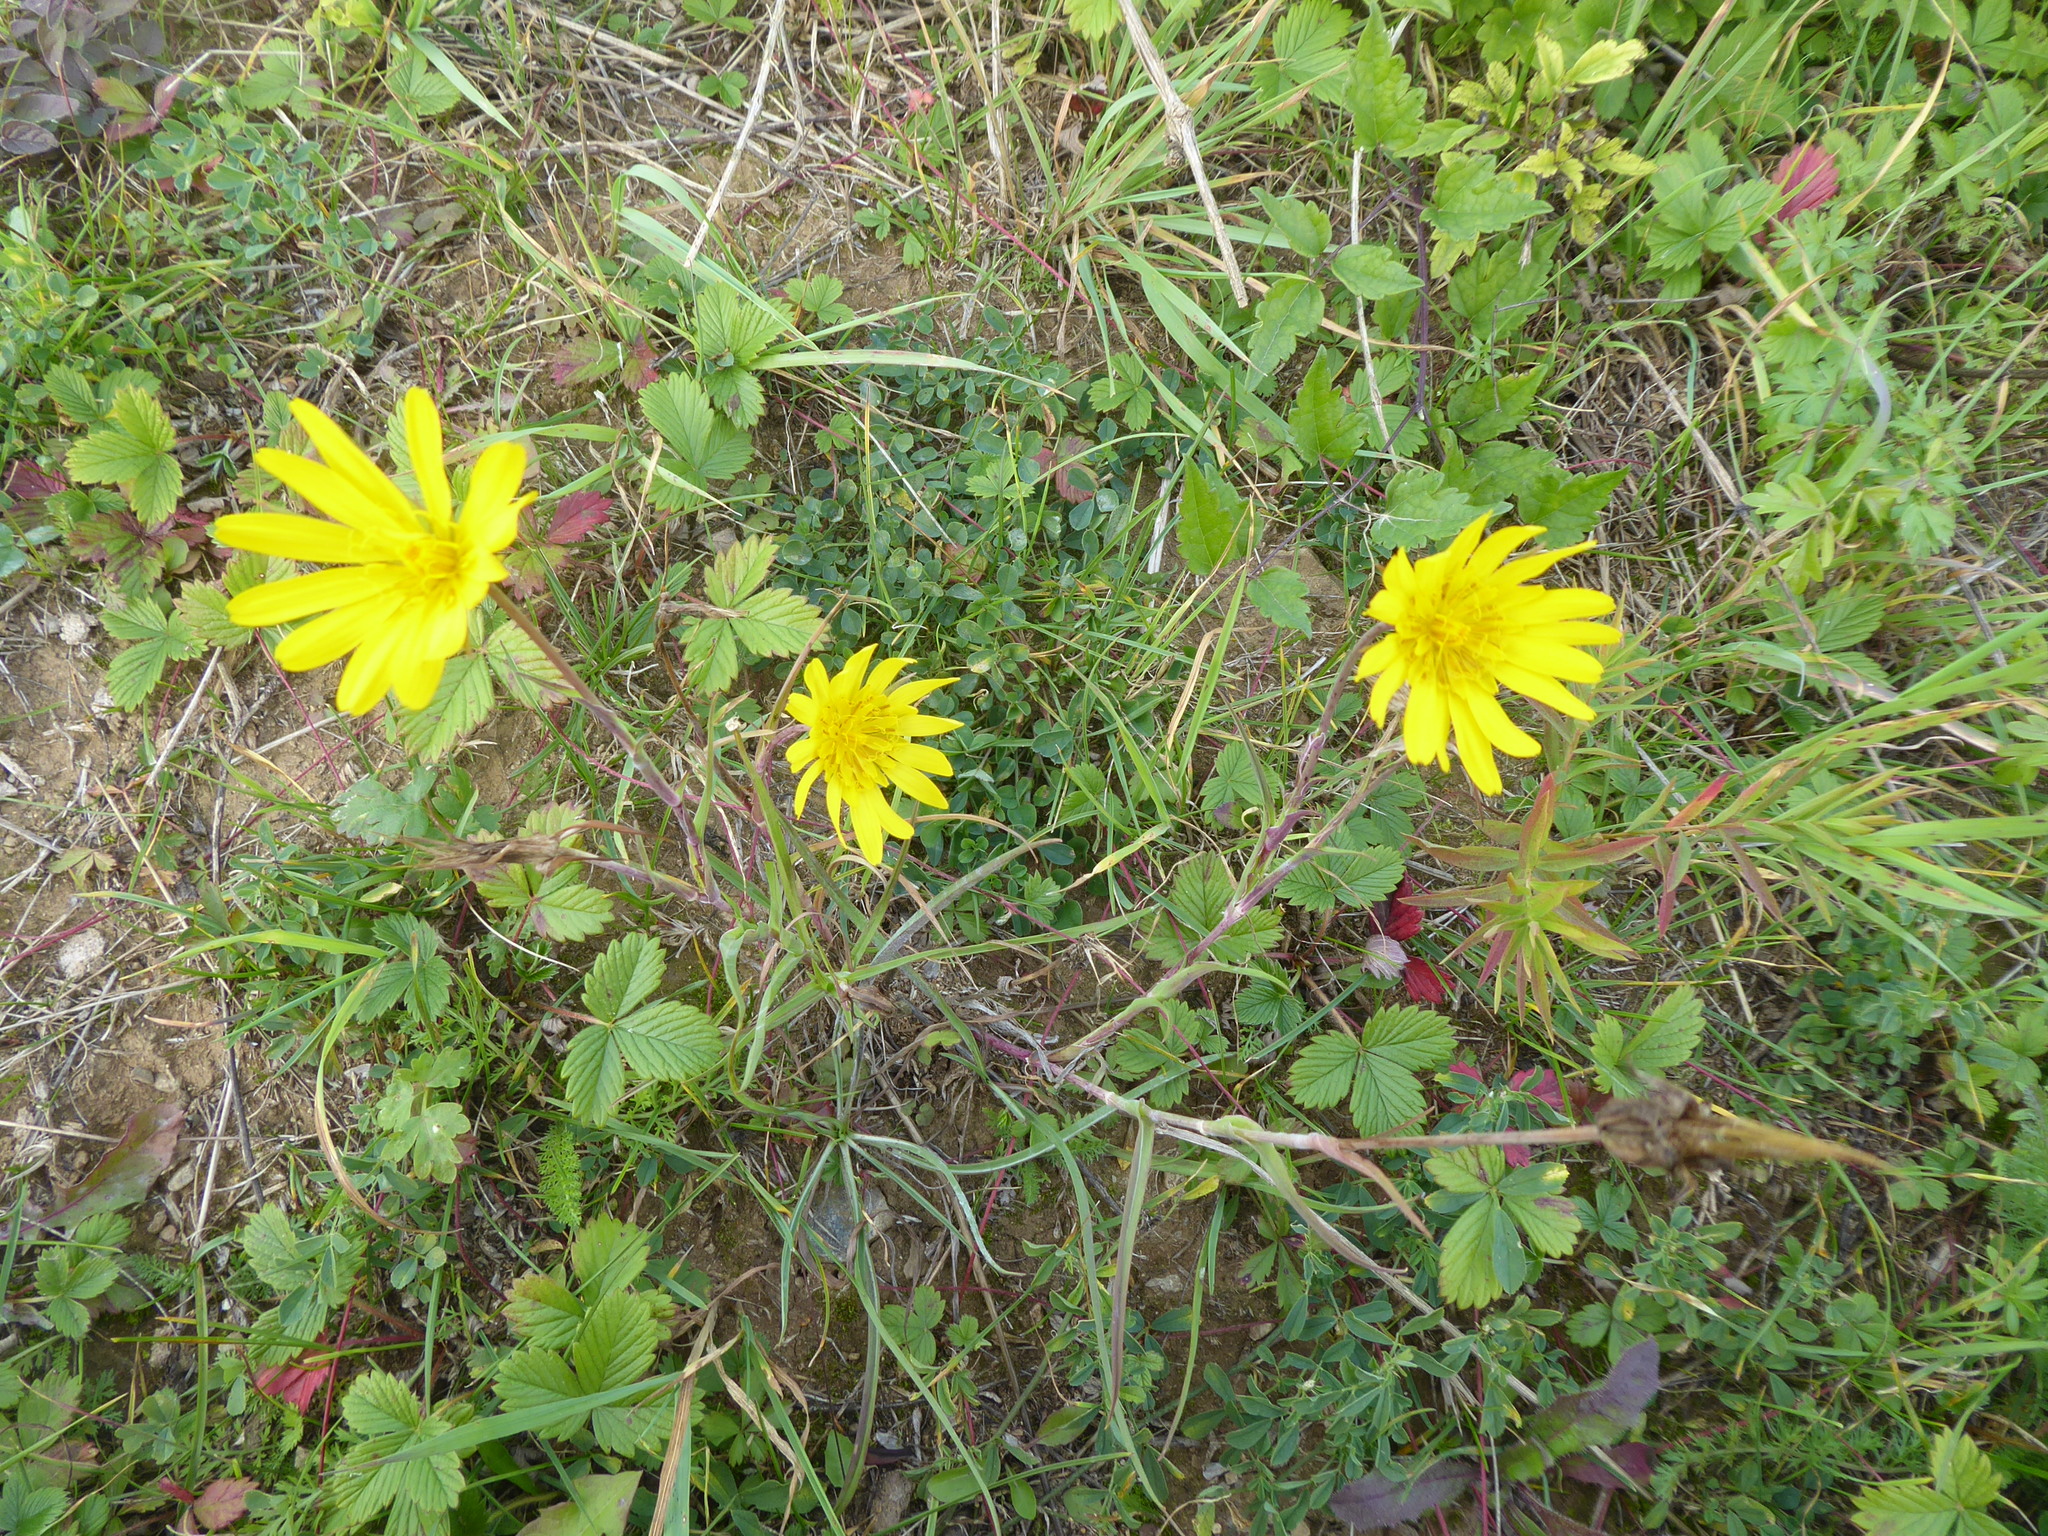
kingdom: Plantae
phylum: Tracheophyta
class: Magnoliopsida
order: Asterales
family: Asteraceae
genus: Tragopogon
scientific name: Tragopogon orientalis
